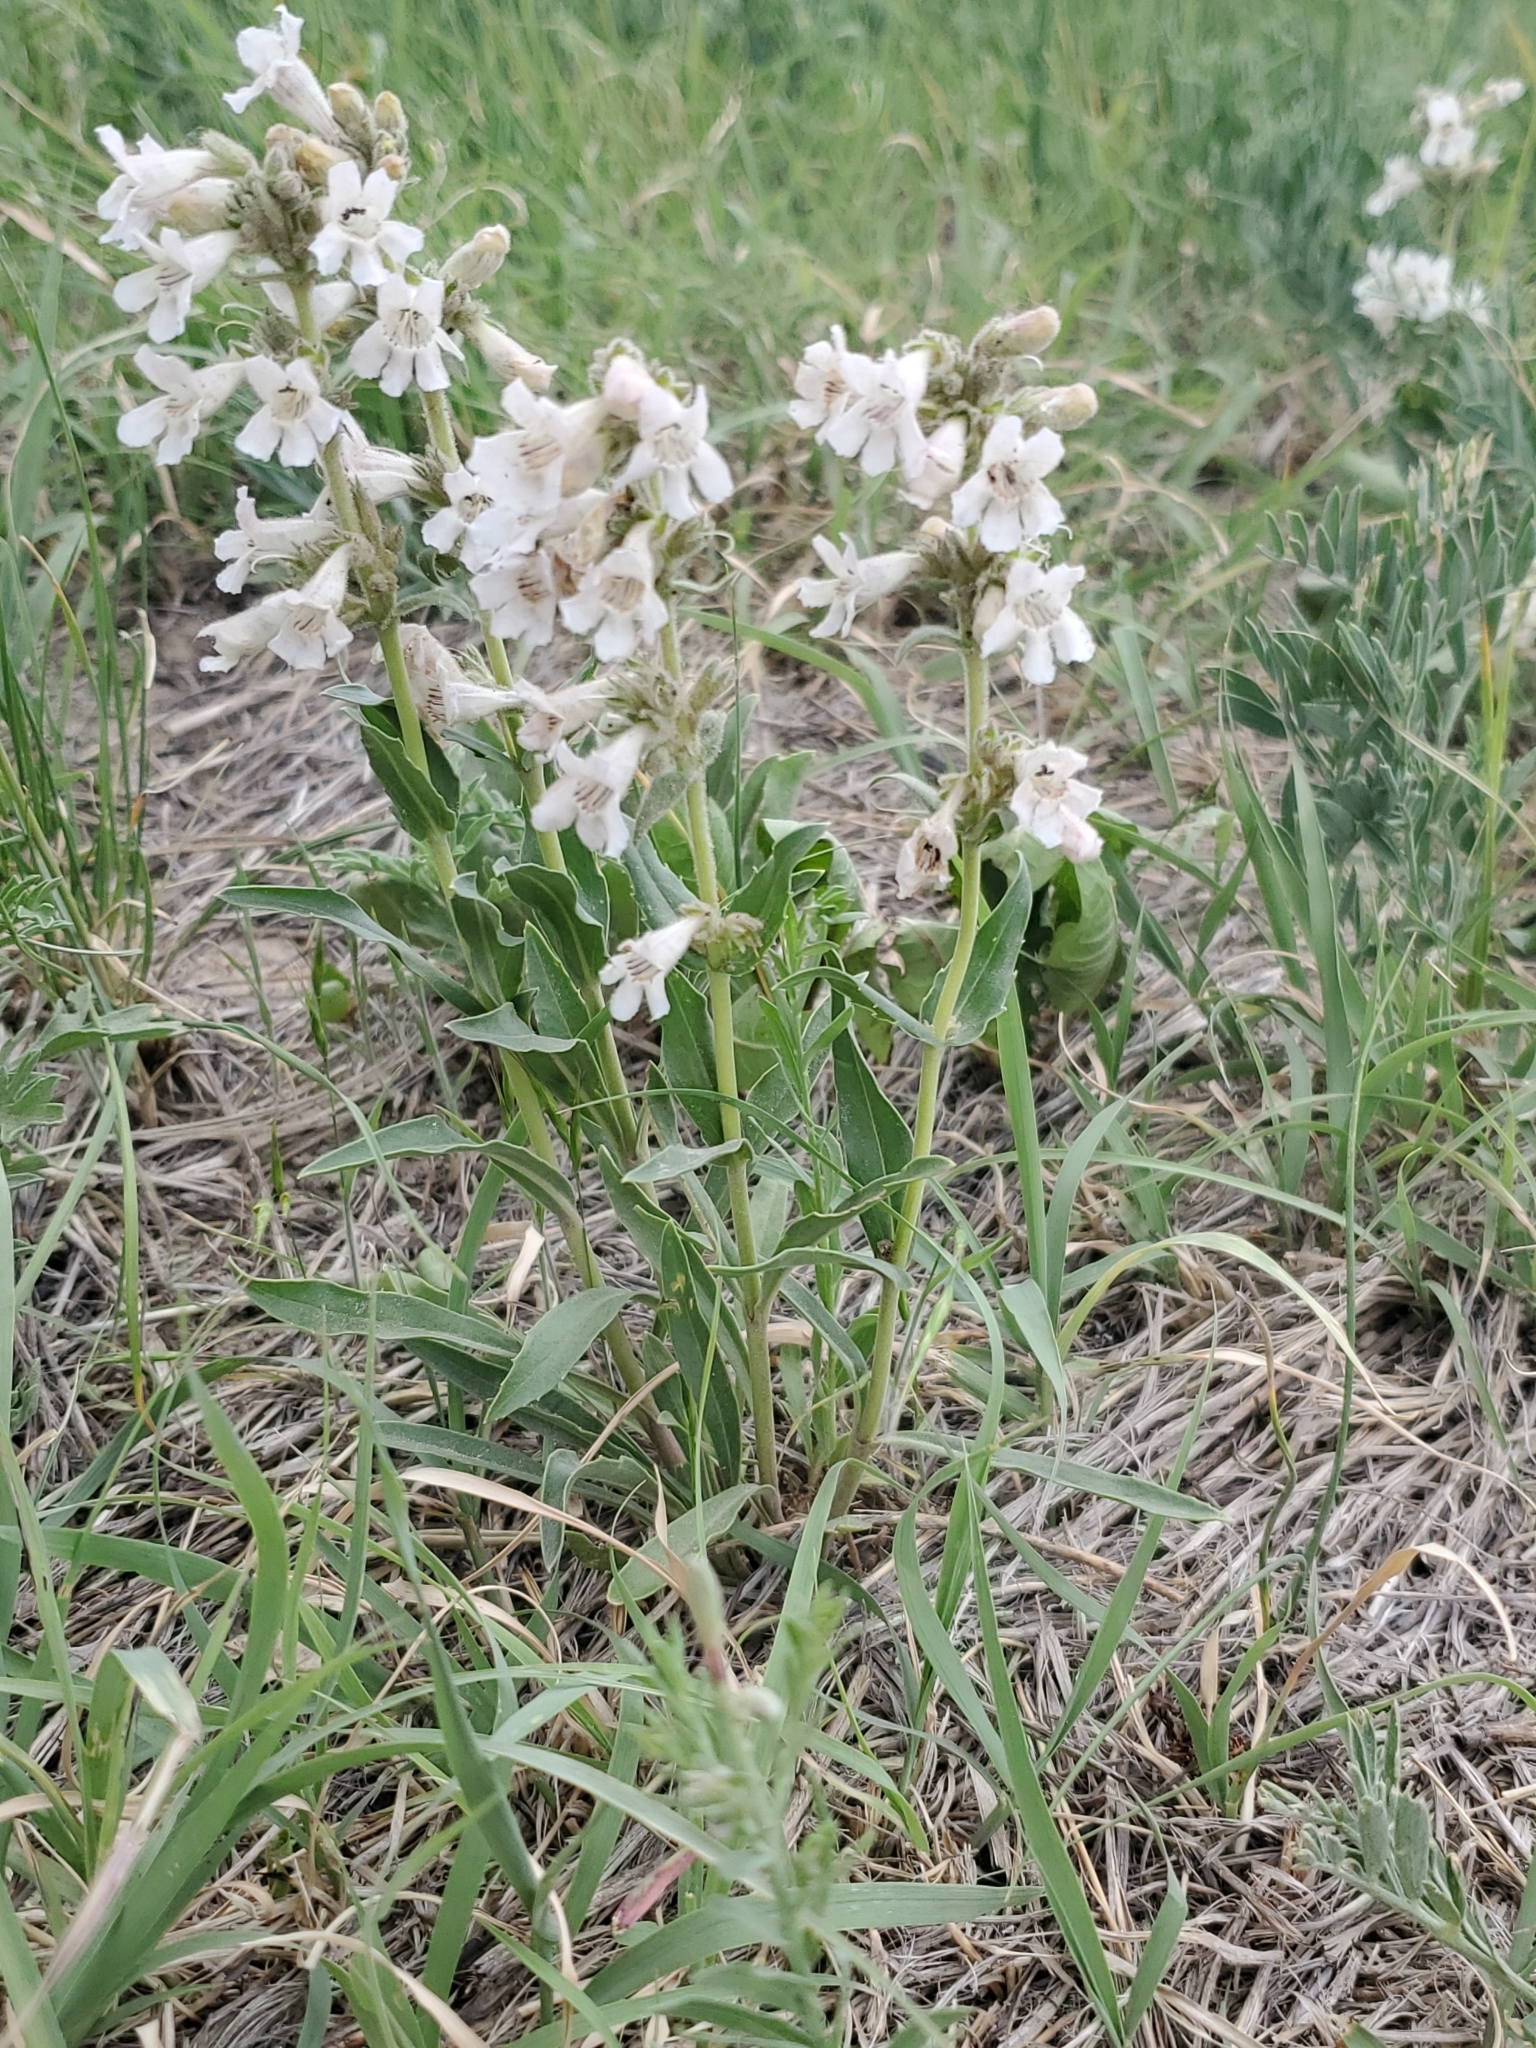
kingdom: Plantae
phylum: Tracheophyta
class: Magnoliopsida
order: Lamiales
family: Plantaginaceae
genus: Penstemon
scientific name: Penstemon albidus
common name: White beardtongue
